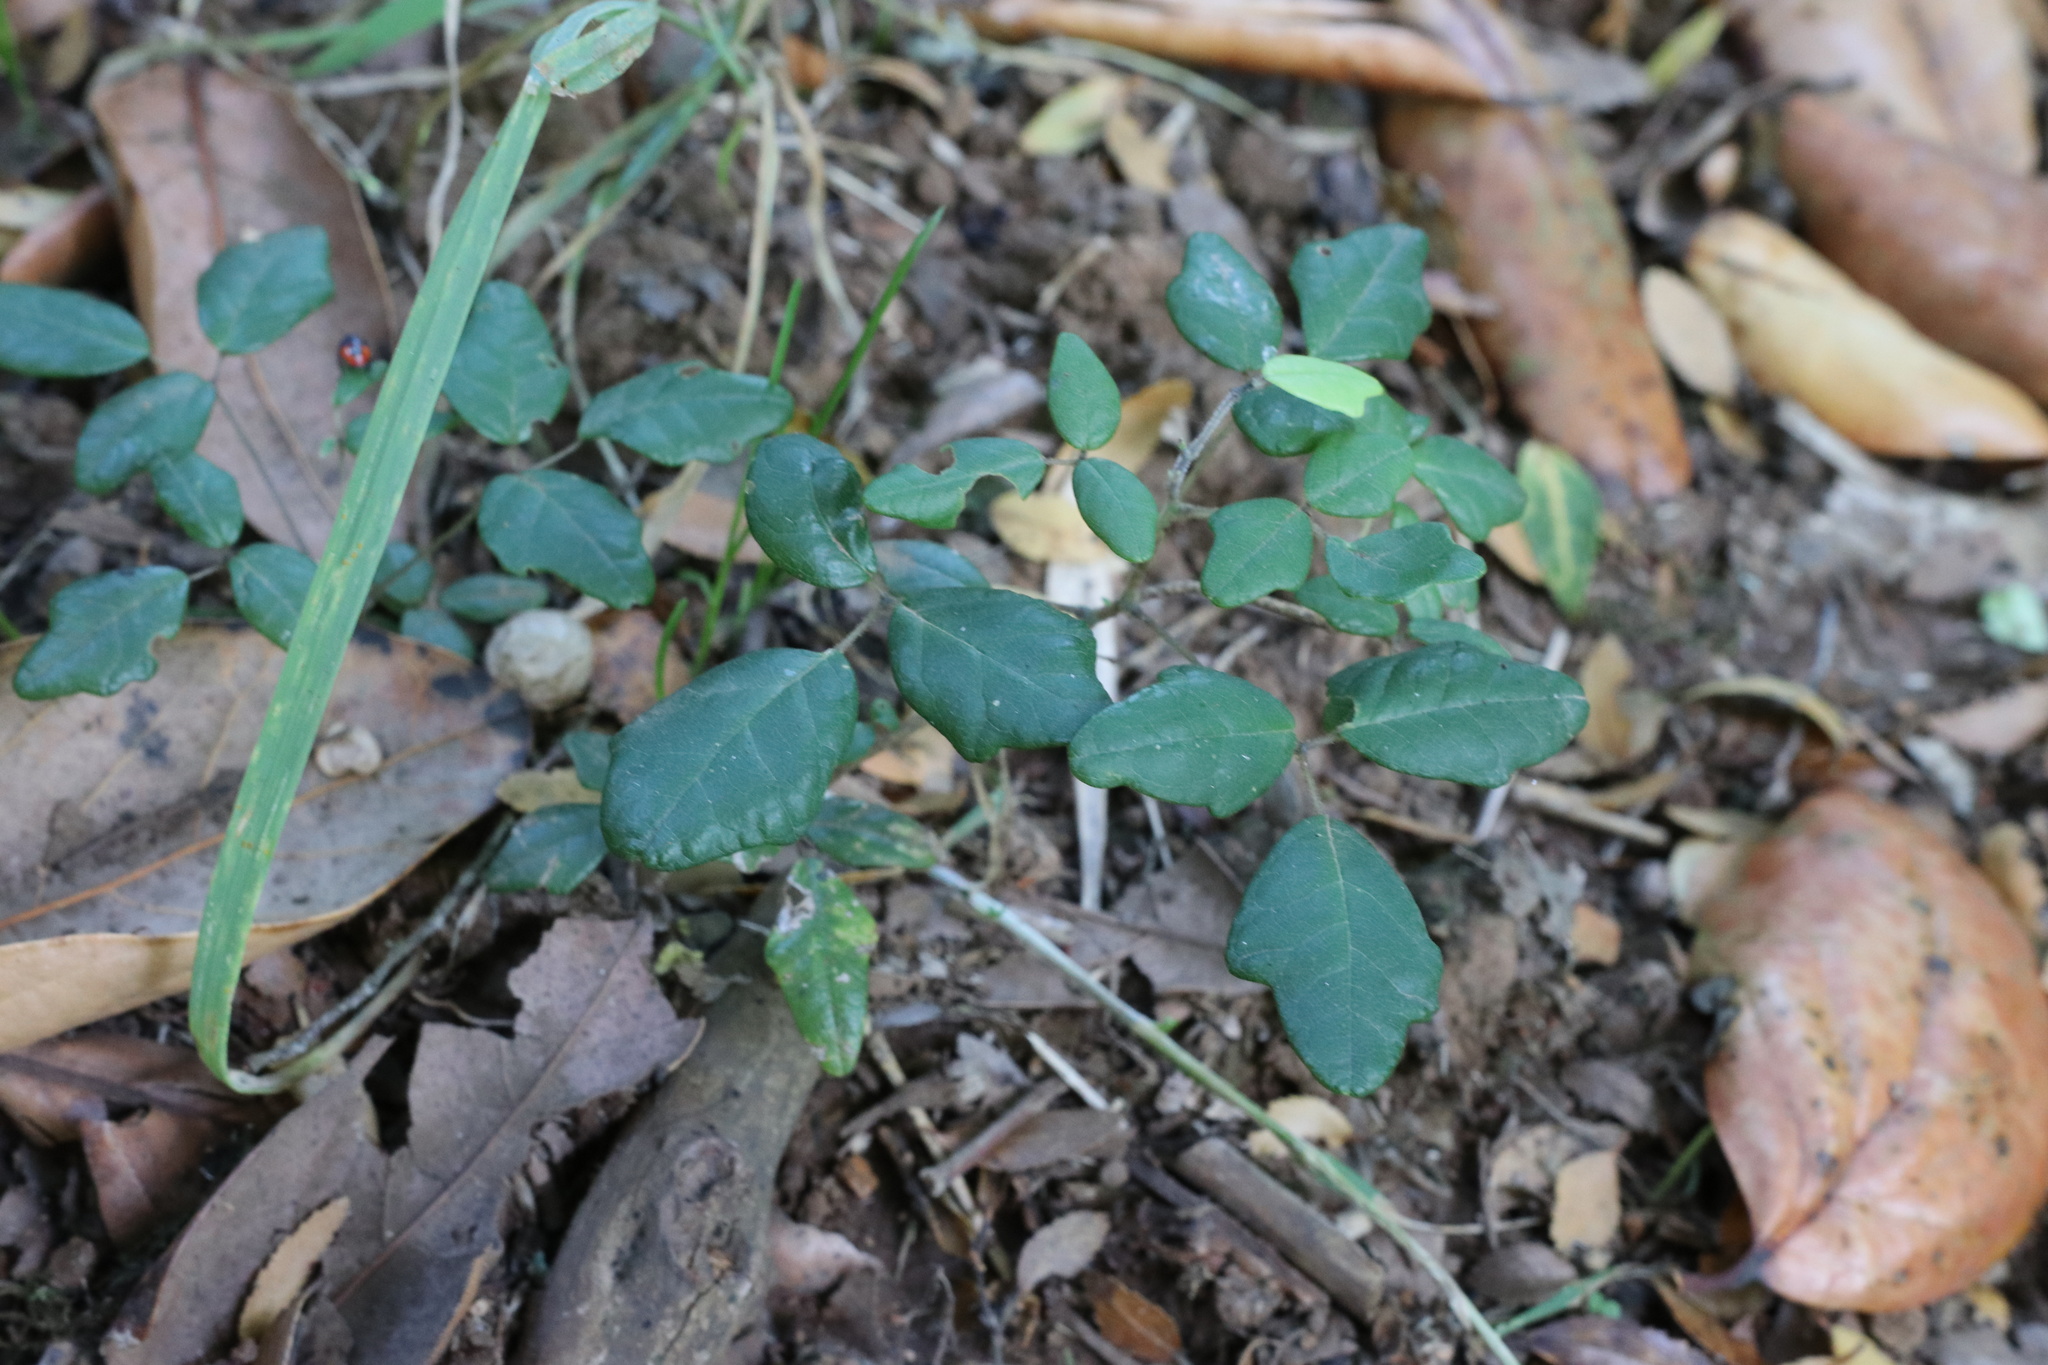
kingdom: Plantae
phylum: Tracheophyta
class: Magnoliopsida
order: Ranunculales
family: Lardizabalaceae
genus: Boquila
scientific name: Boquila trifoliolata
